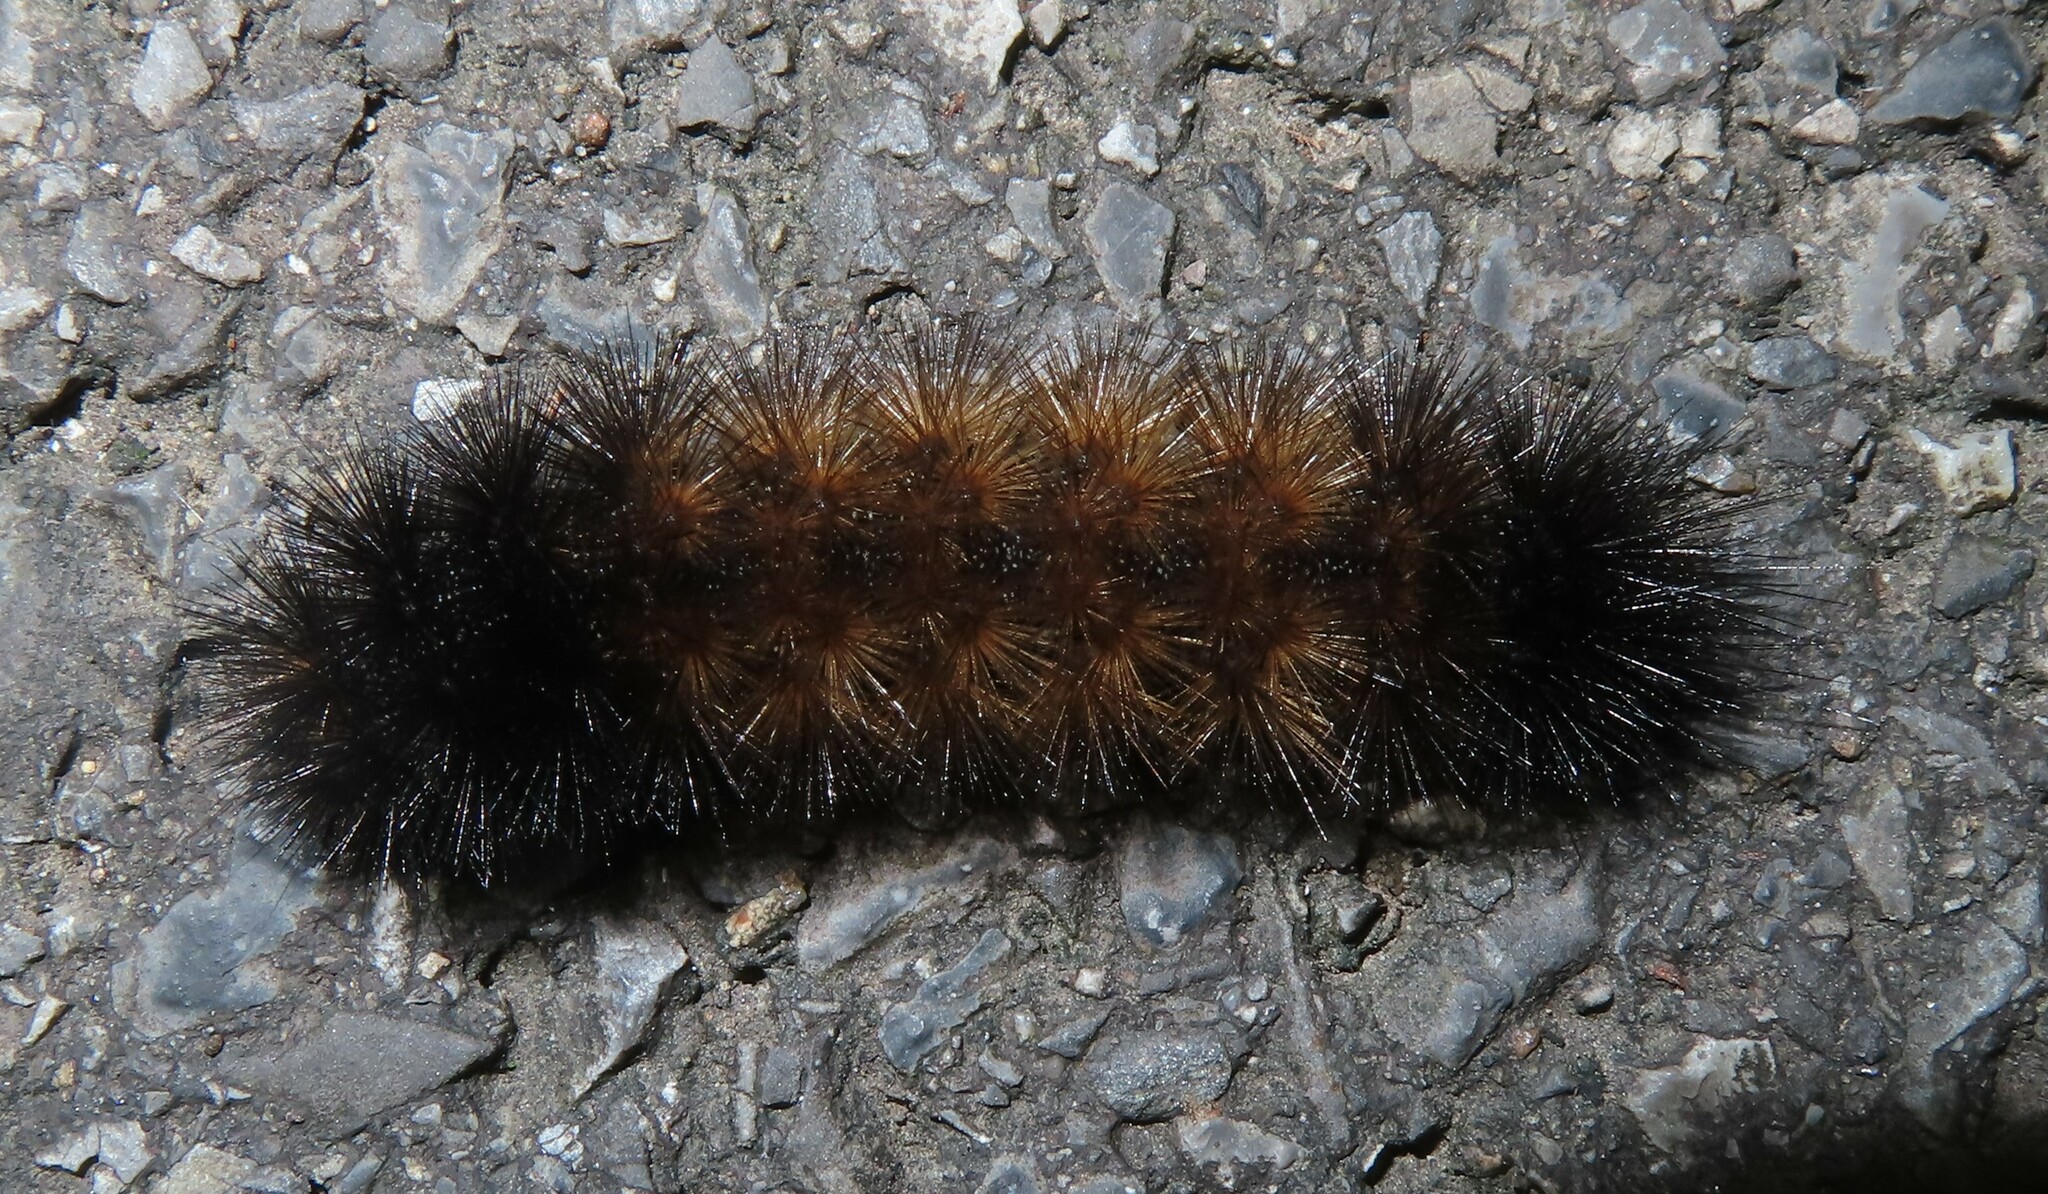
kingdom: Animalia
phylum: Arthropoda
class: Insecta
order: Lepidoptera
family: Erebidae
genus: Pyrrharctia
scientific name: Pyrrharctia isabella
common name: Isabella tiger moth
